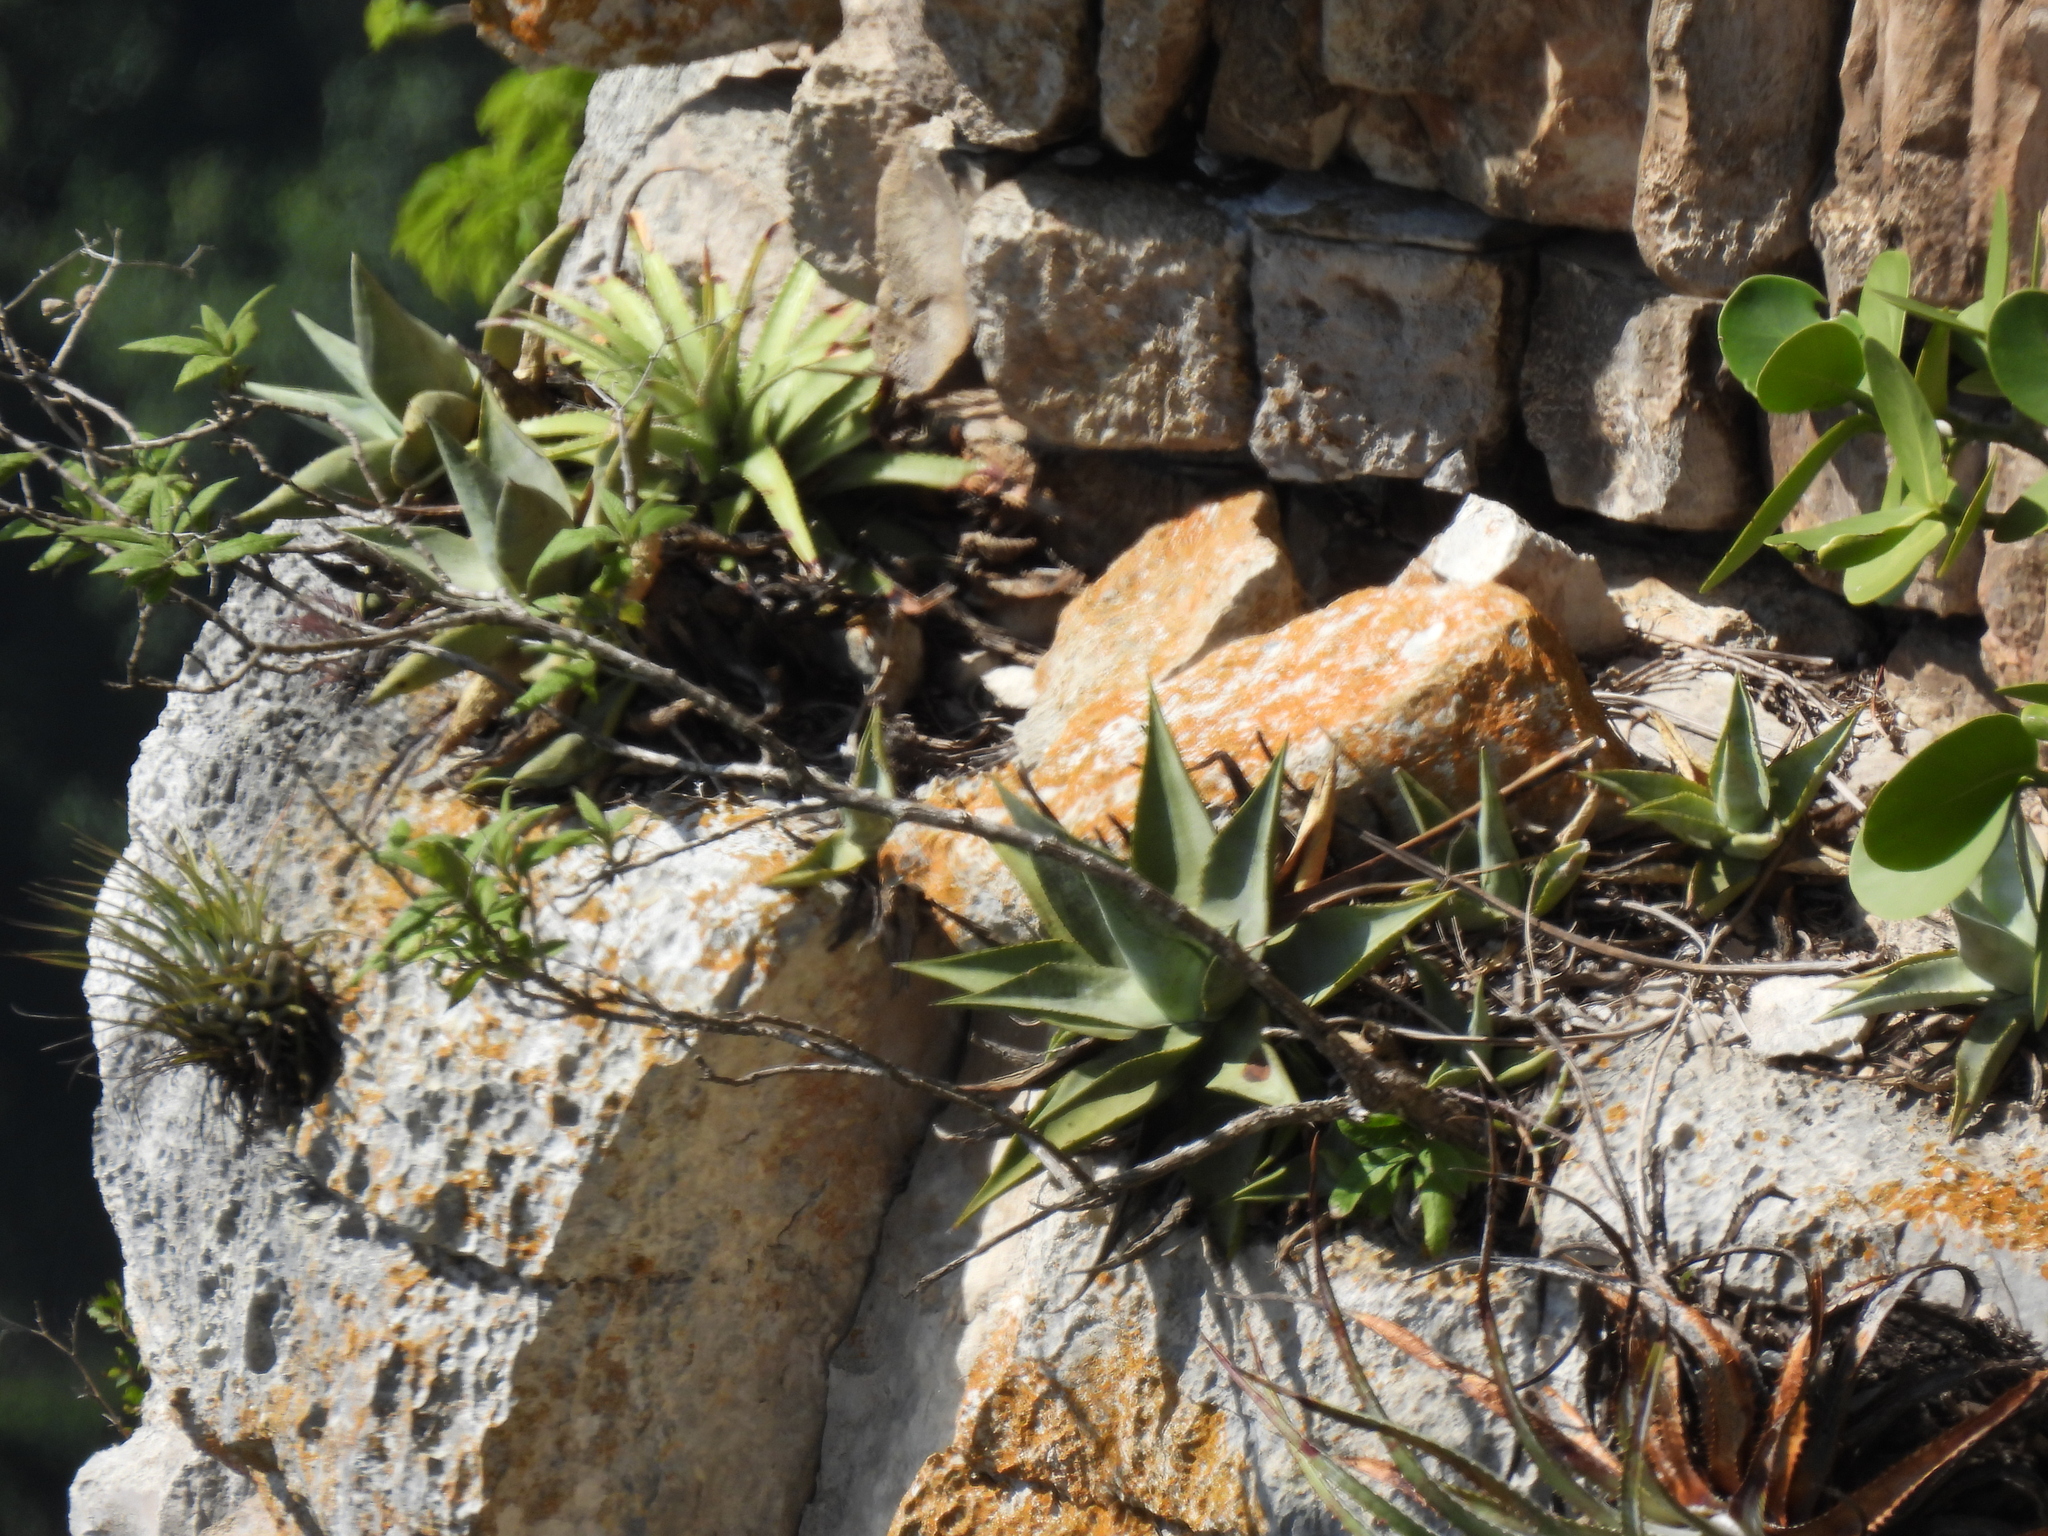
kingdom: Plantae
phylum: Tracheophyta
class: Liliopsida
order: Asparagales
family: Asparagaceae
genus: Agave
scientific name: Agave
